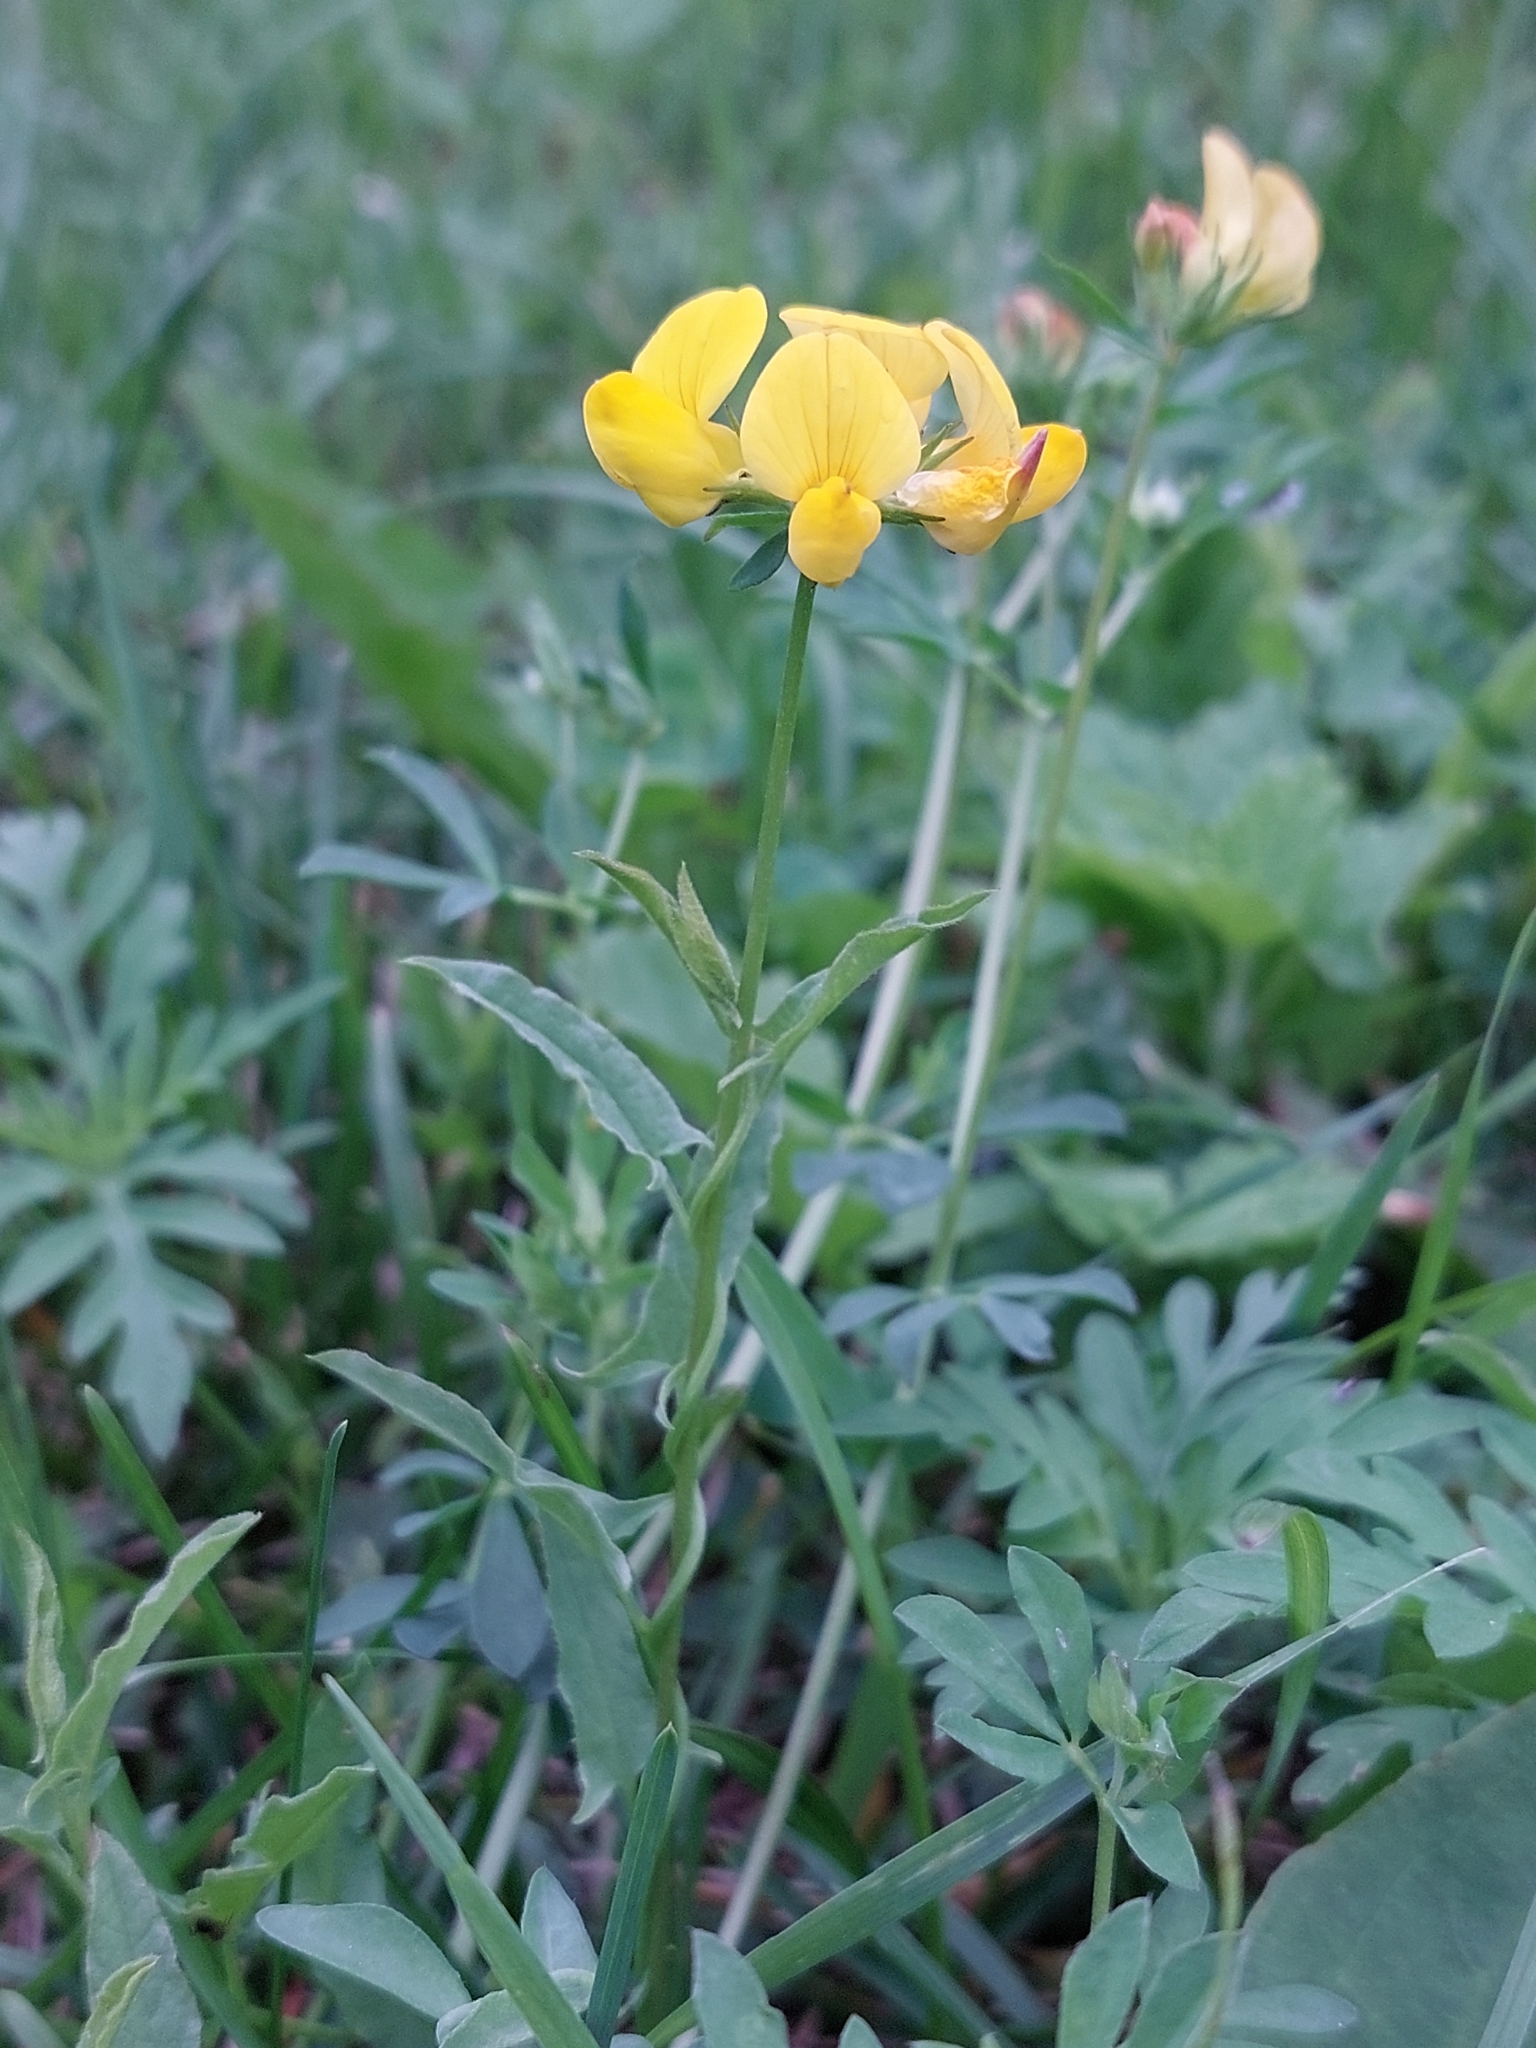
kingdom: Plantae
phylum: Tracheophyta
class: Magnoliopsida
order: Fabales
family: Fabaceae
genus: Lotus
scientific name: Lotus corniculatus
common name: Common bird's-foot-trefoil
